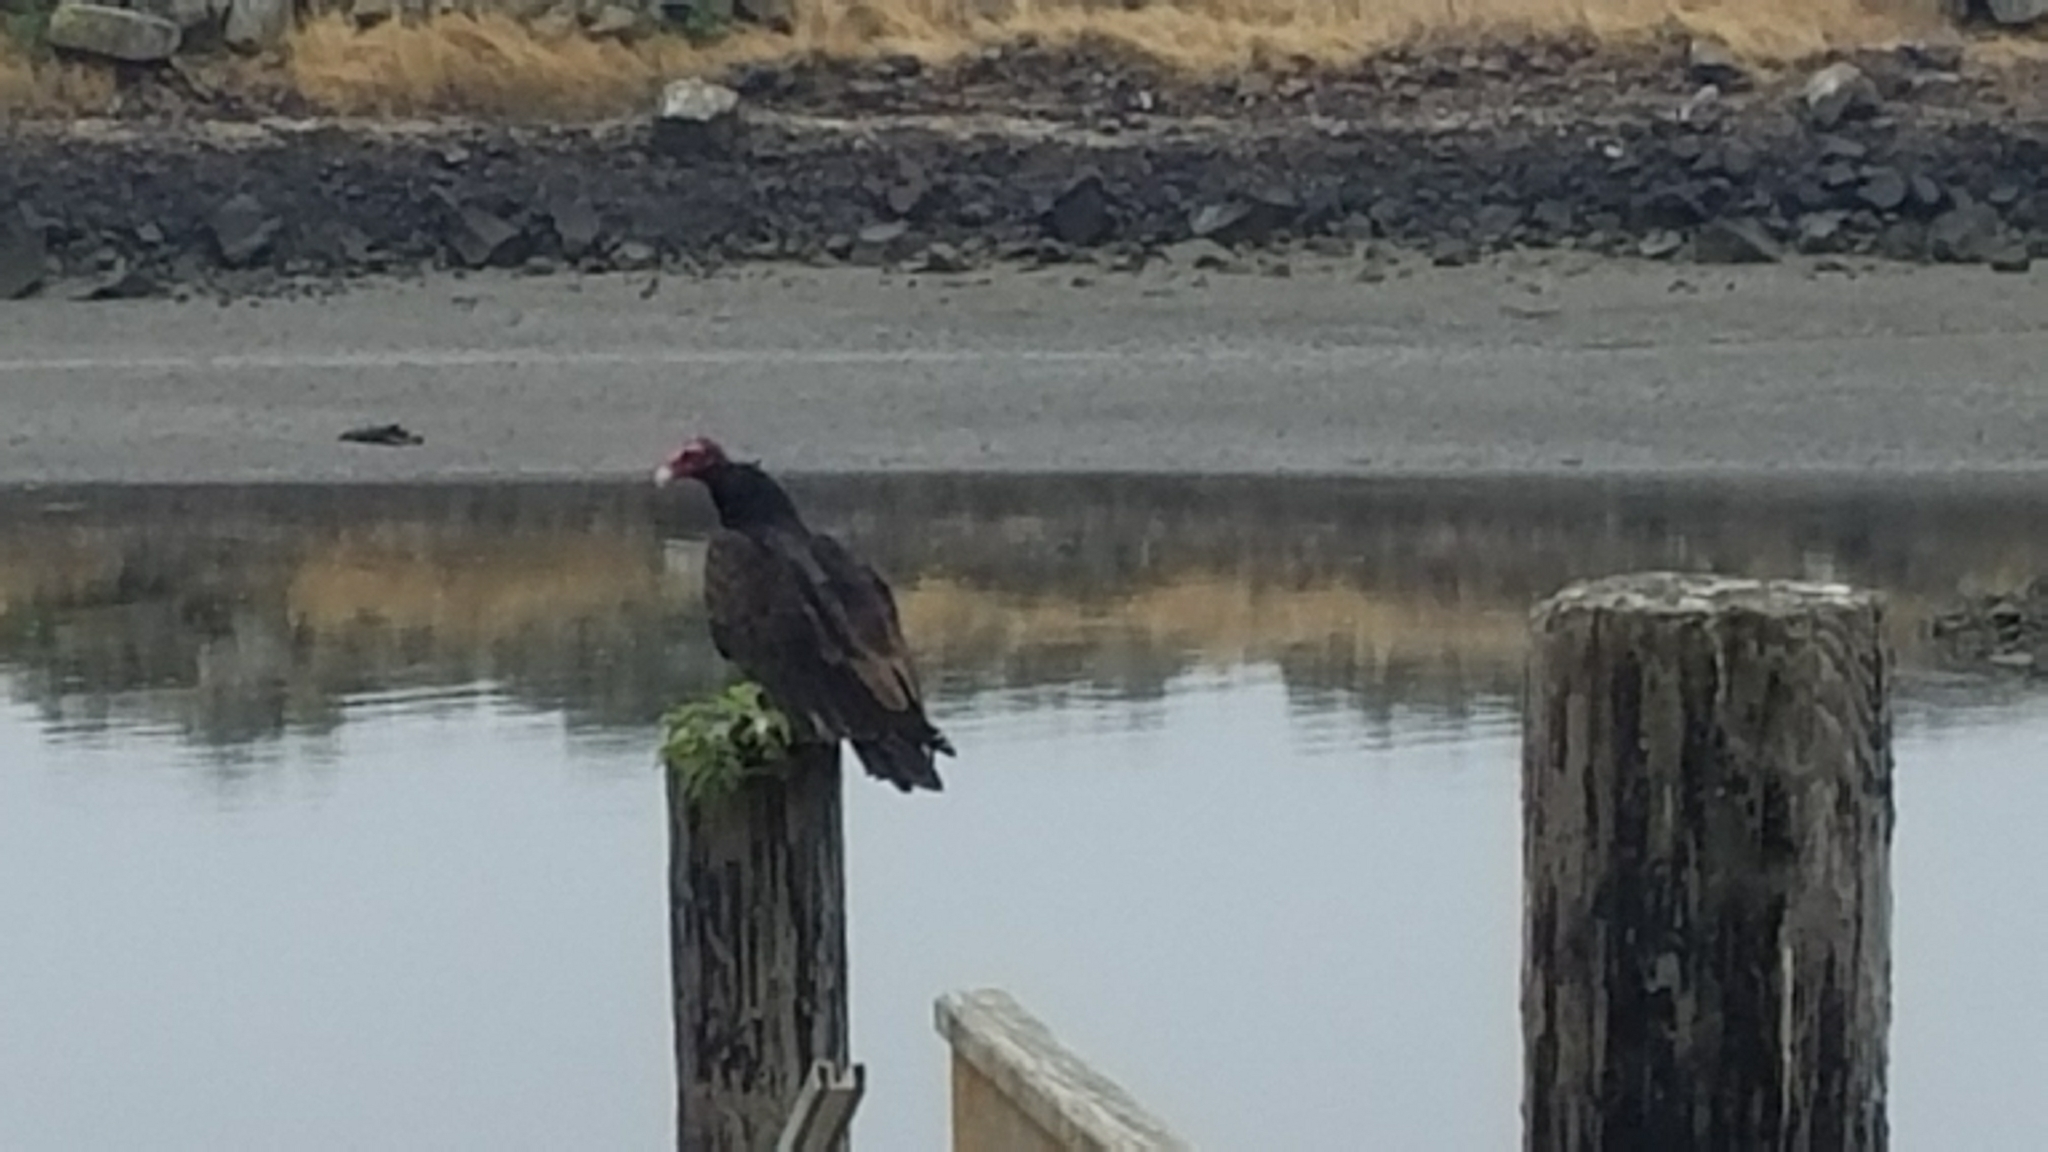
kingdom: Animalia
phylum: Chordata
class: Aves
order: Accipitriformes
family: Cathartidae
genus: Cathartes
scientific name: Cathartes aura
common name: Turkey vulture
